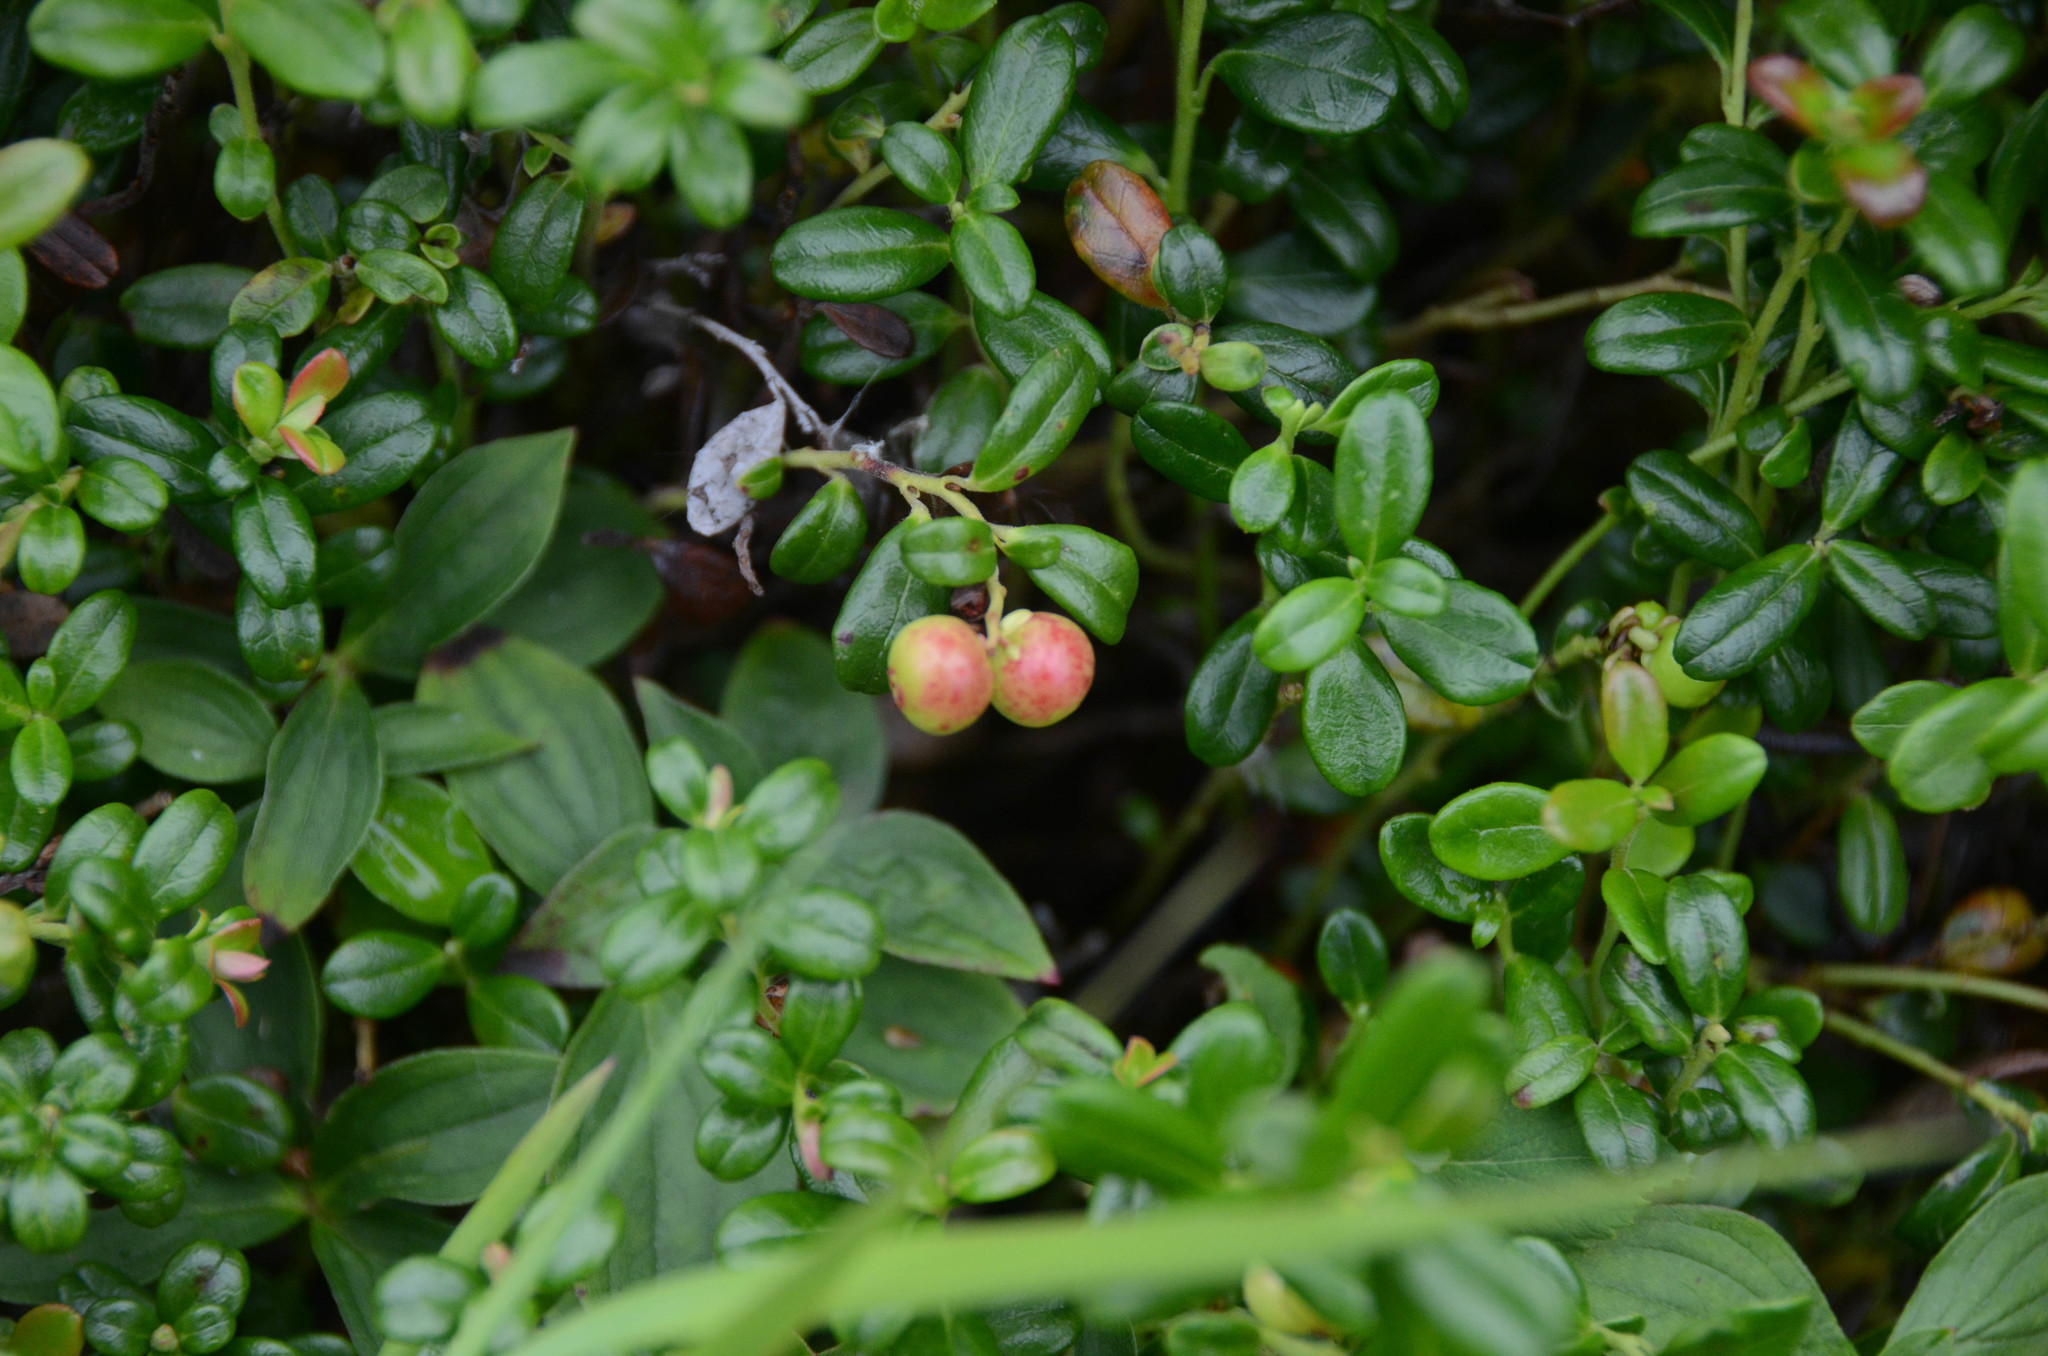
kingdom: Plantae
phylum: Tracheophyta
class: Magnoliopsida
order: Ericales
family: Ericaceae
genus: Vaccinium
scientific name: Vaccinium vitis-idaea
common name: Cowberry
